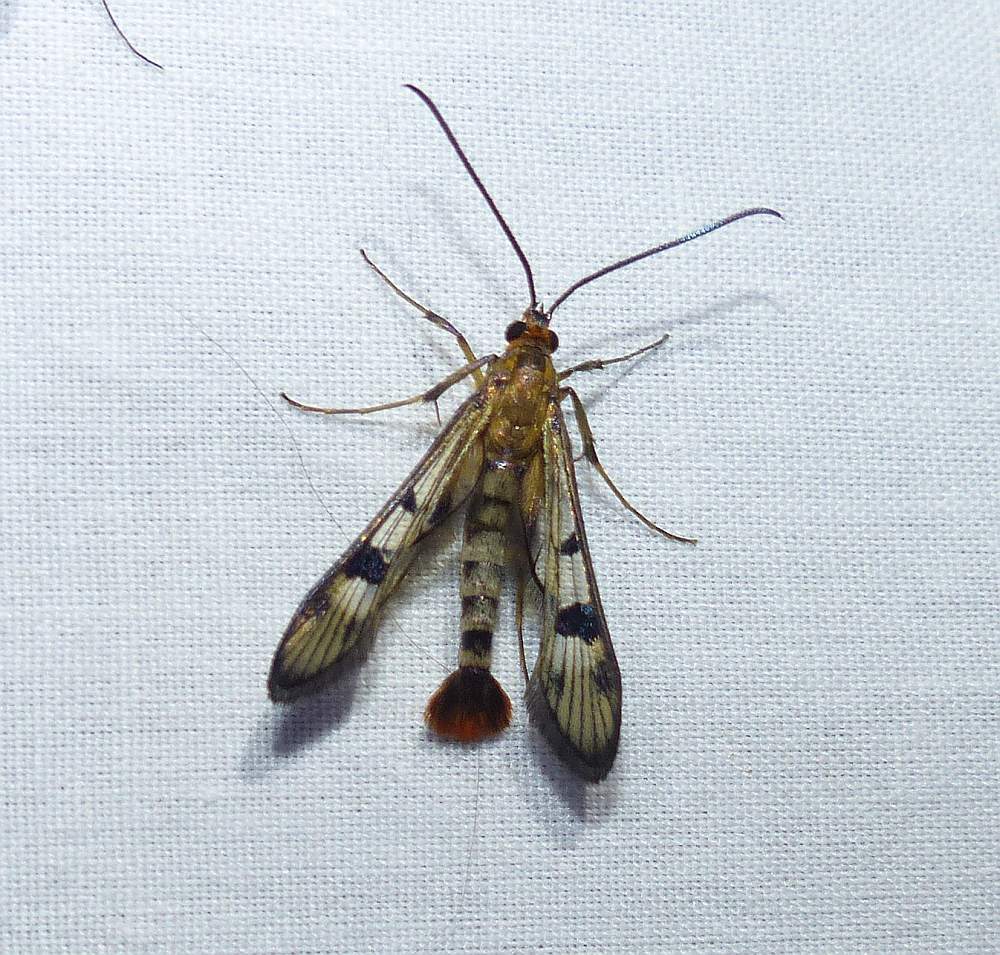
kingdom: Animalia
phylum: Arthropoda
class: Insecta
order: Lepidoptera
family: Sesiidae
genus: Synanthedon
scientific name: Synanthedon acerni
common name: Maple callus borer moth
